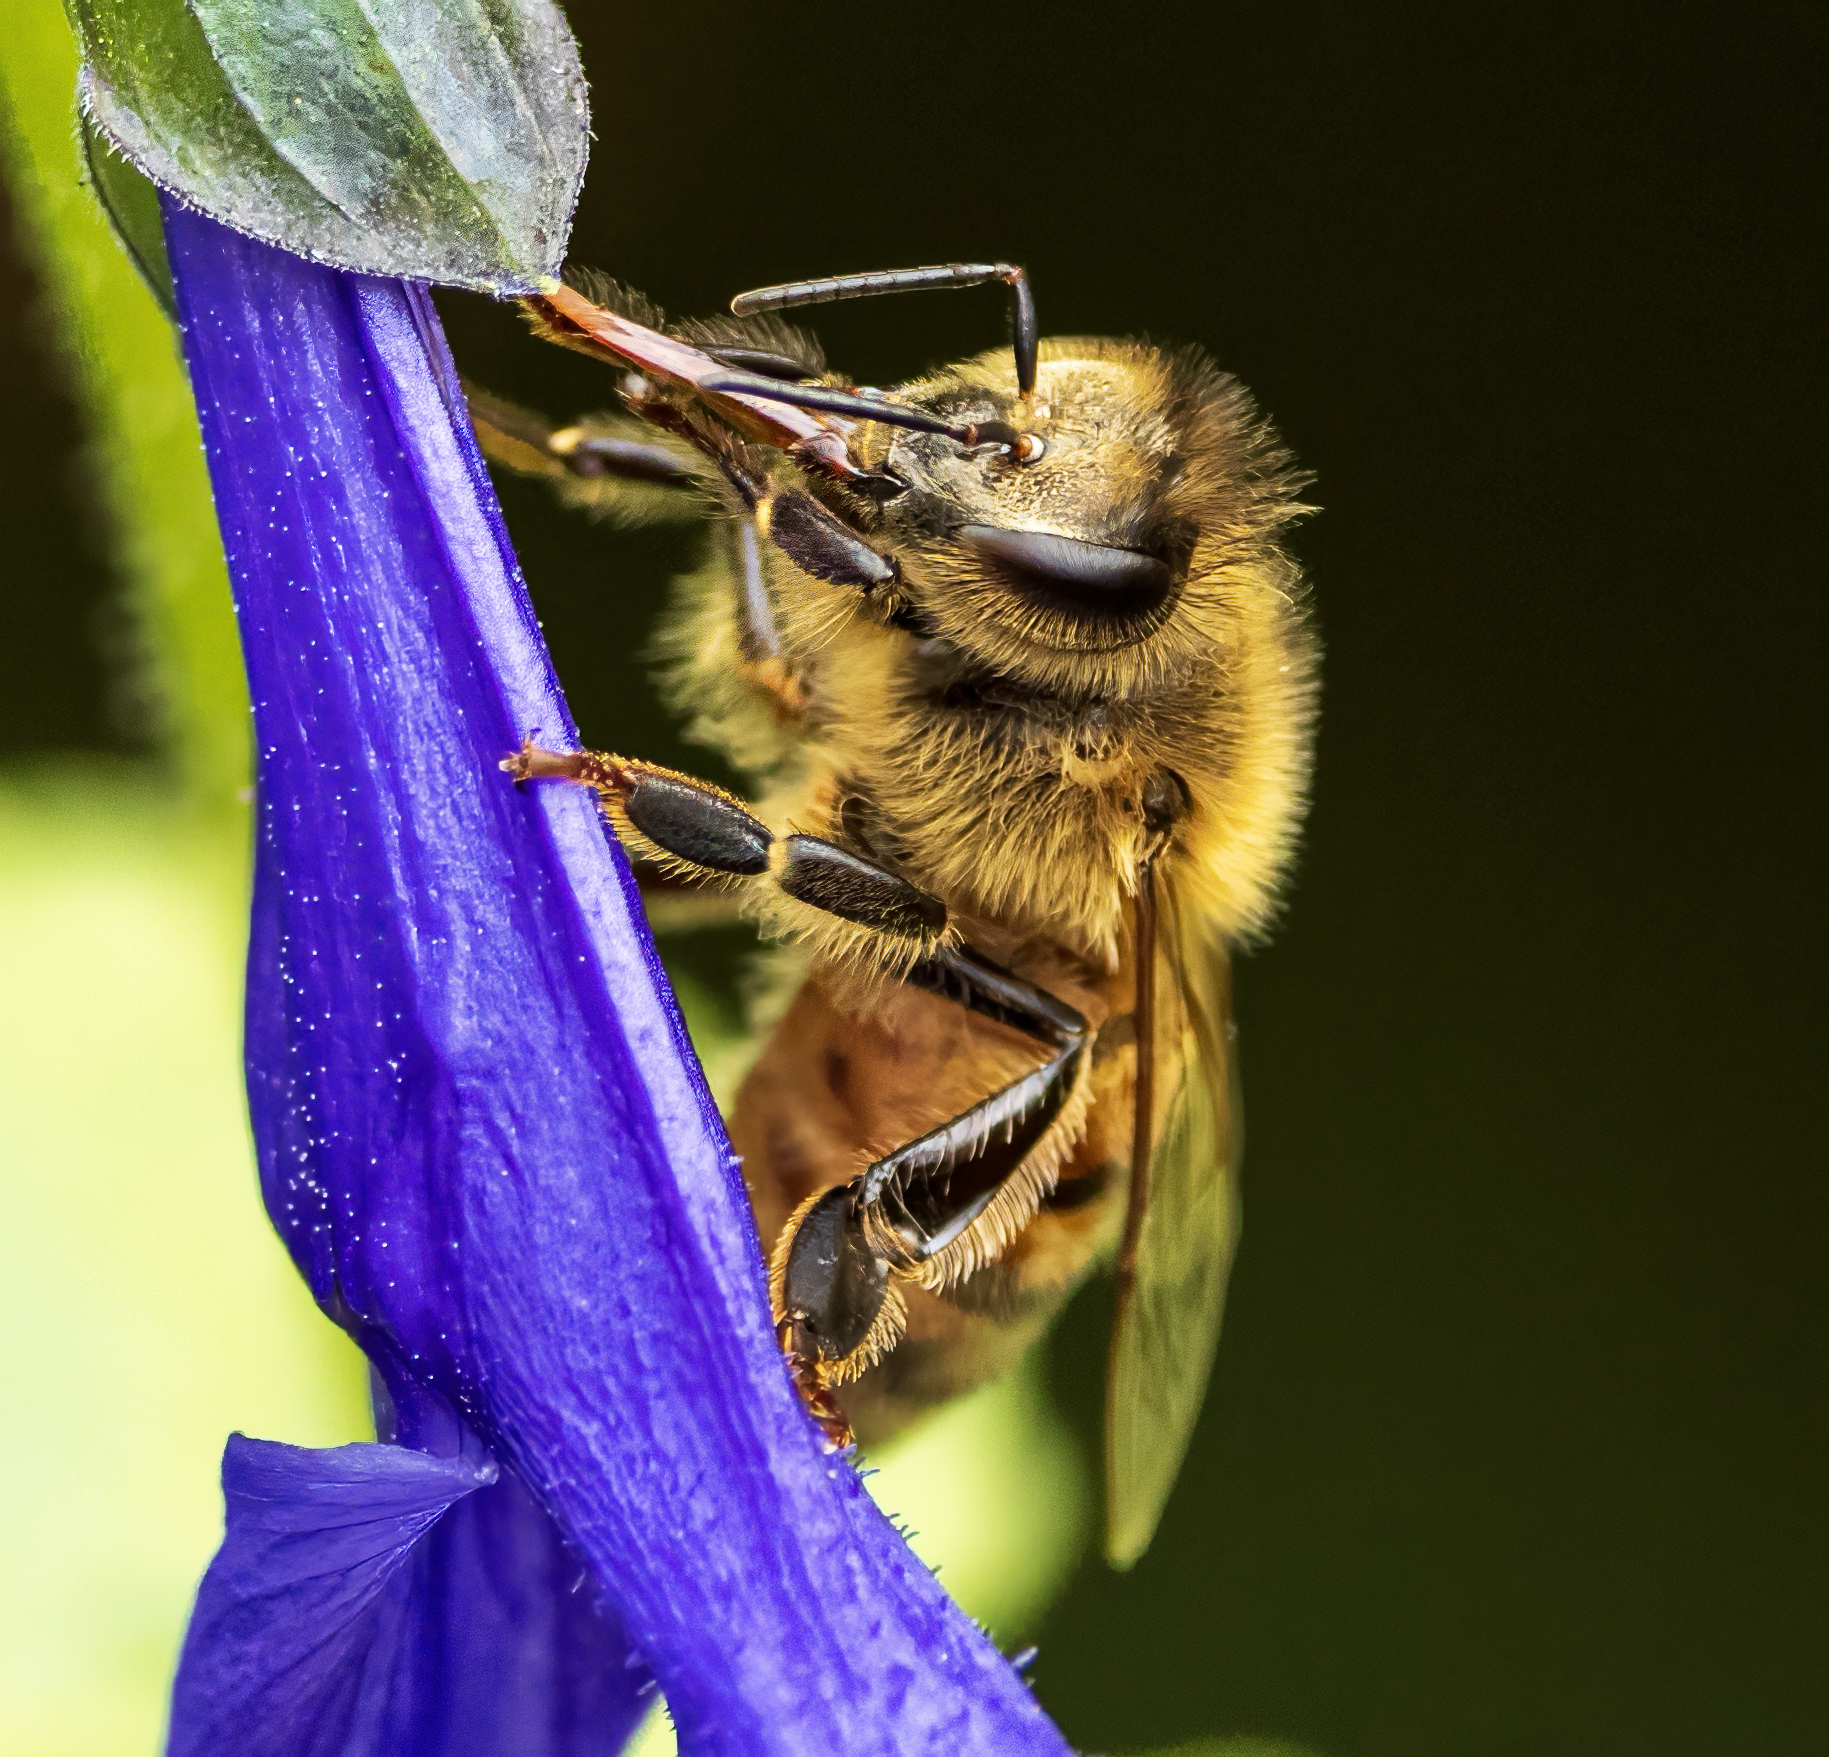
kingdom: Animalia
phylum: Arthropoda
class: Insecta
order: Hymenoptera
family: Apidae
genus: Apis
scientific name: Apis mellifera
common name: Honey bee
